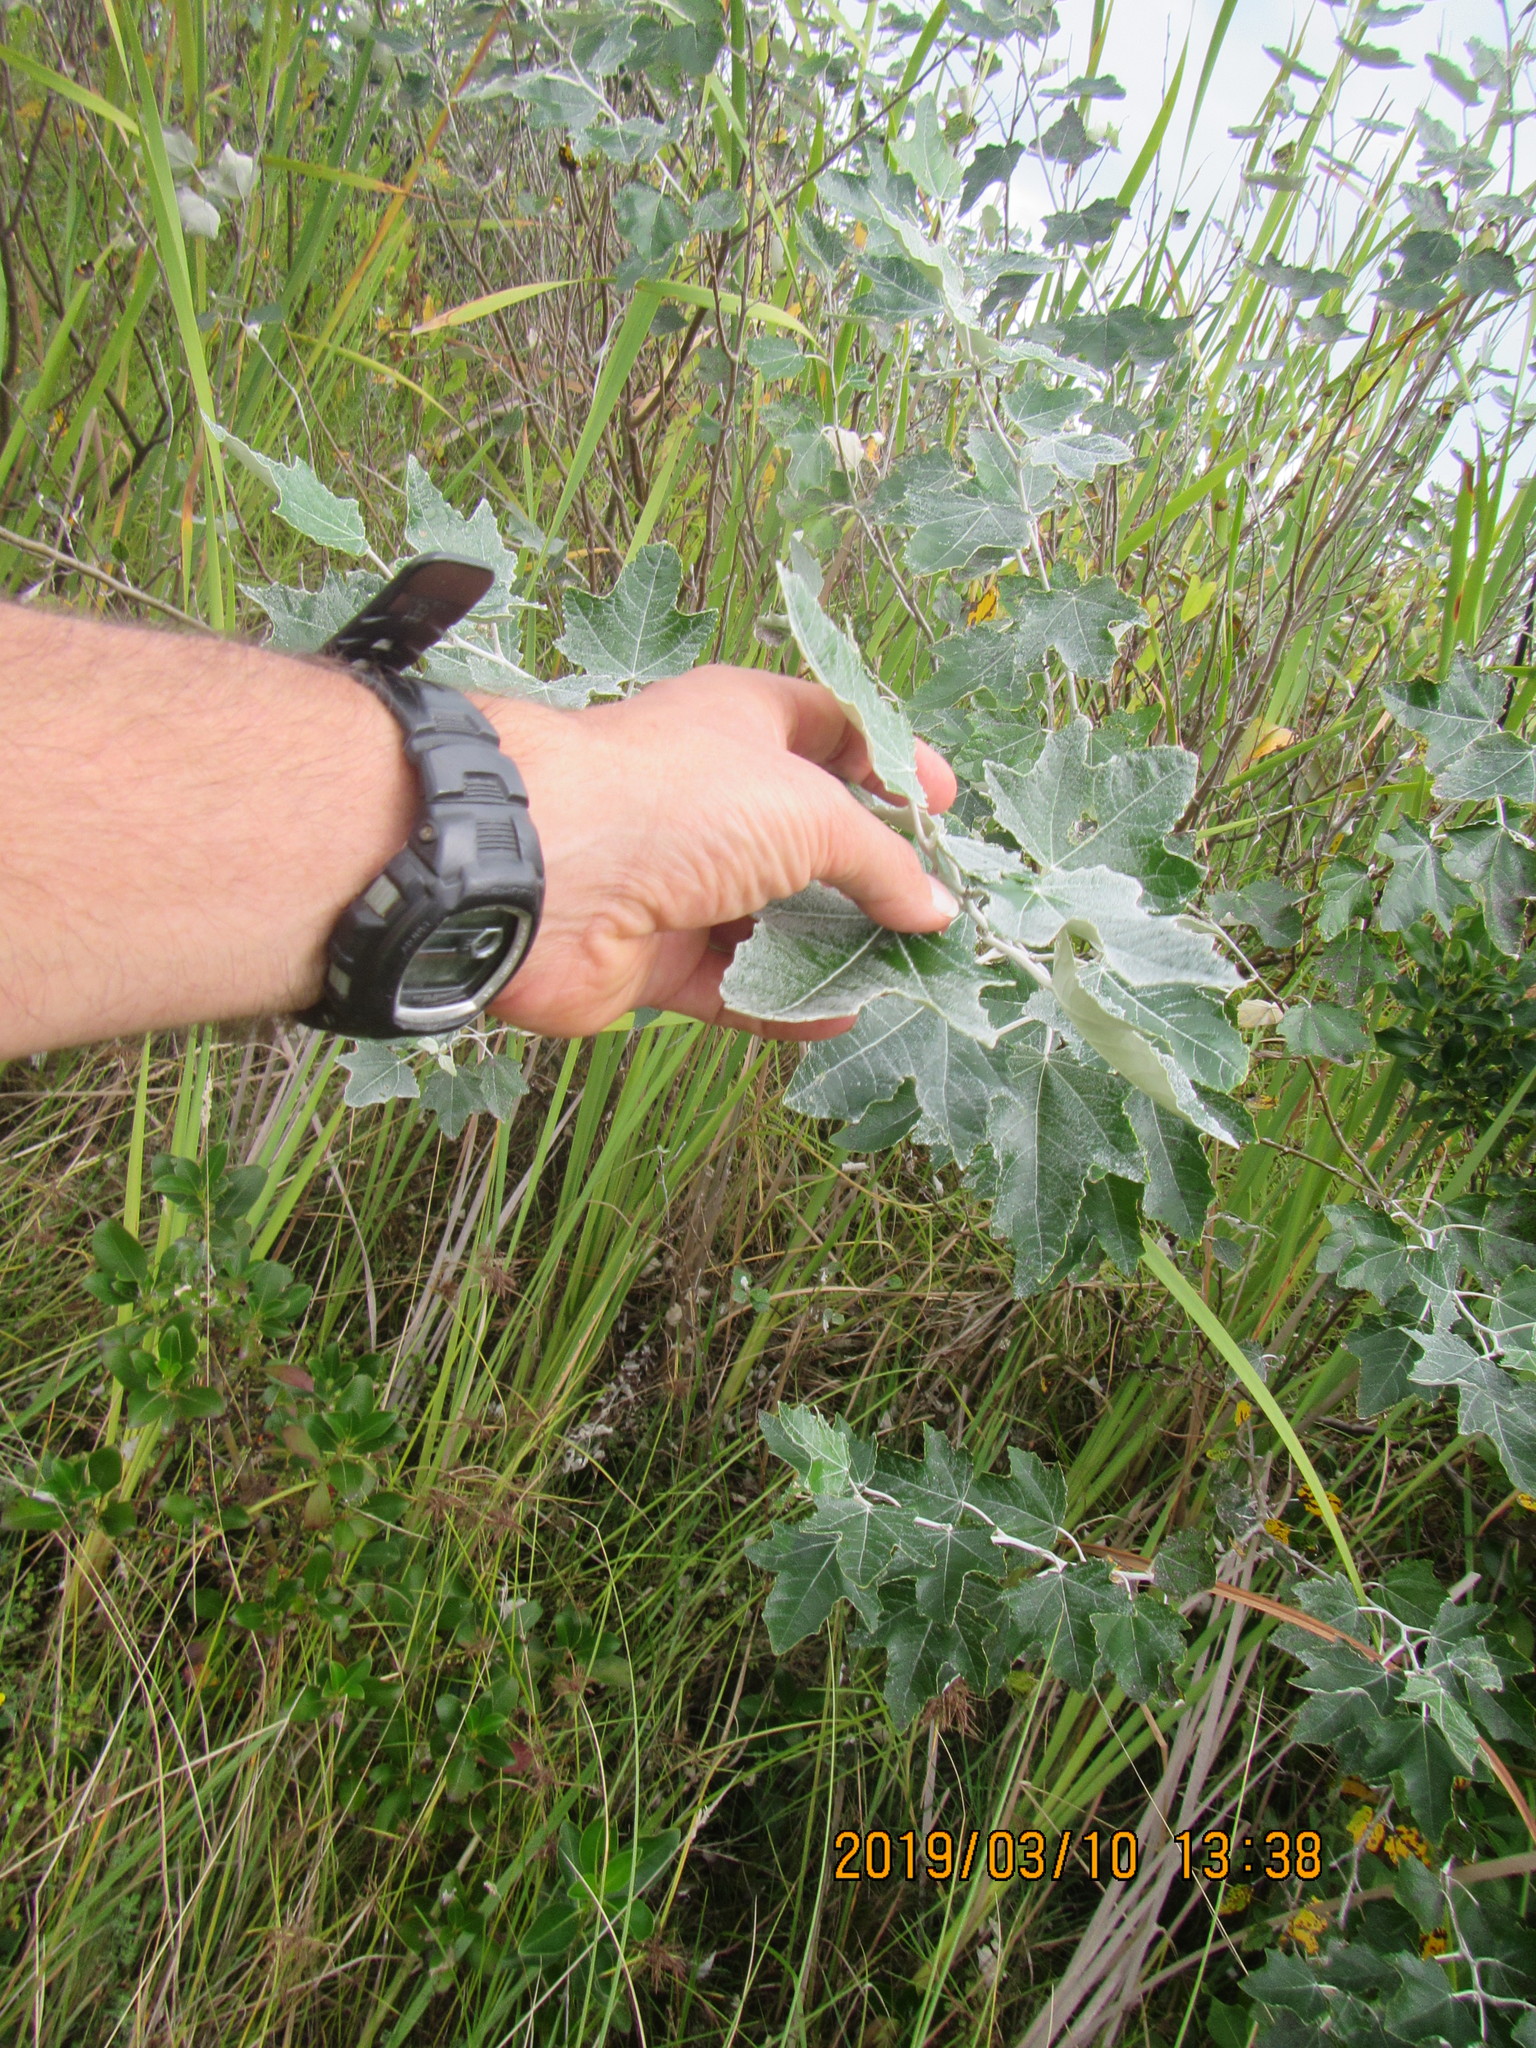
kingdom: Plantae
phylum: Tracheophyta
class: Magnoliopsida
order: Malpighiales
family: Salicaceae
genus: Populus
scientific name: Populus alba
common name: White poplar
